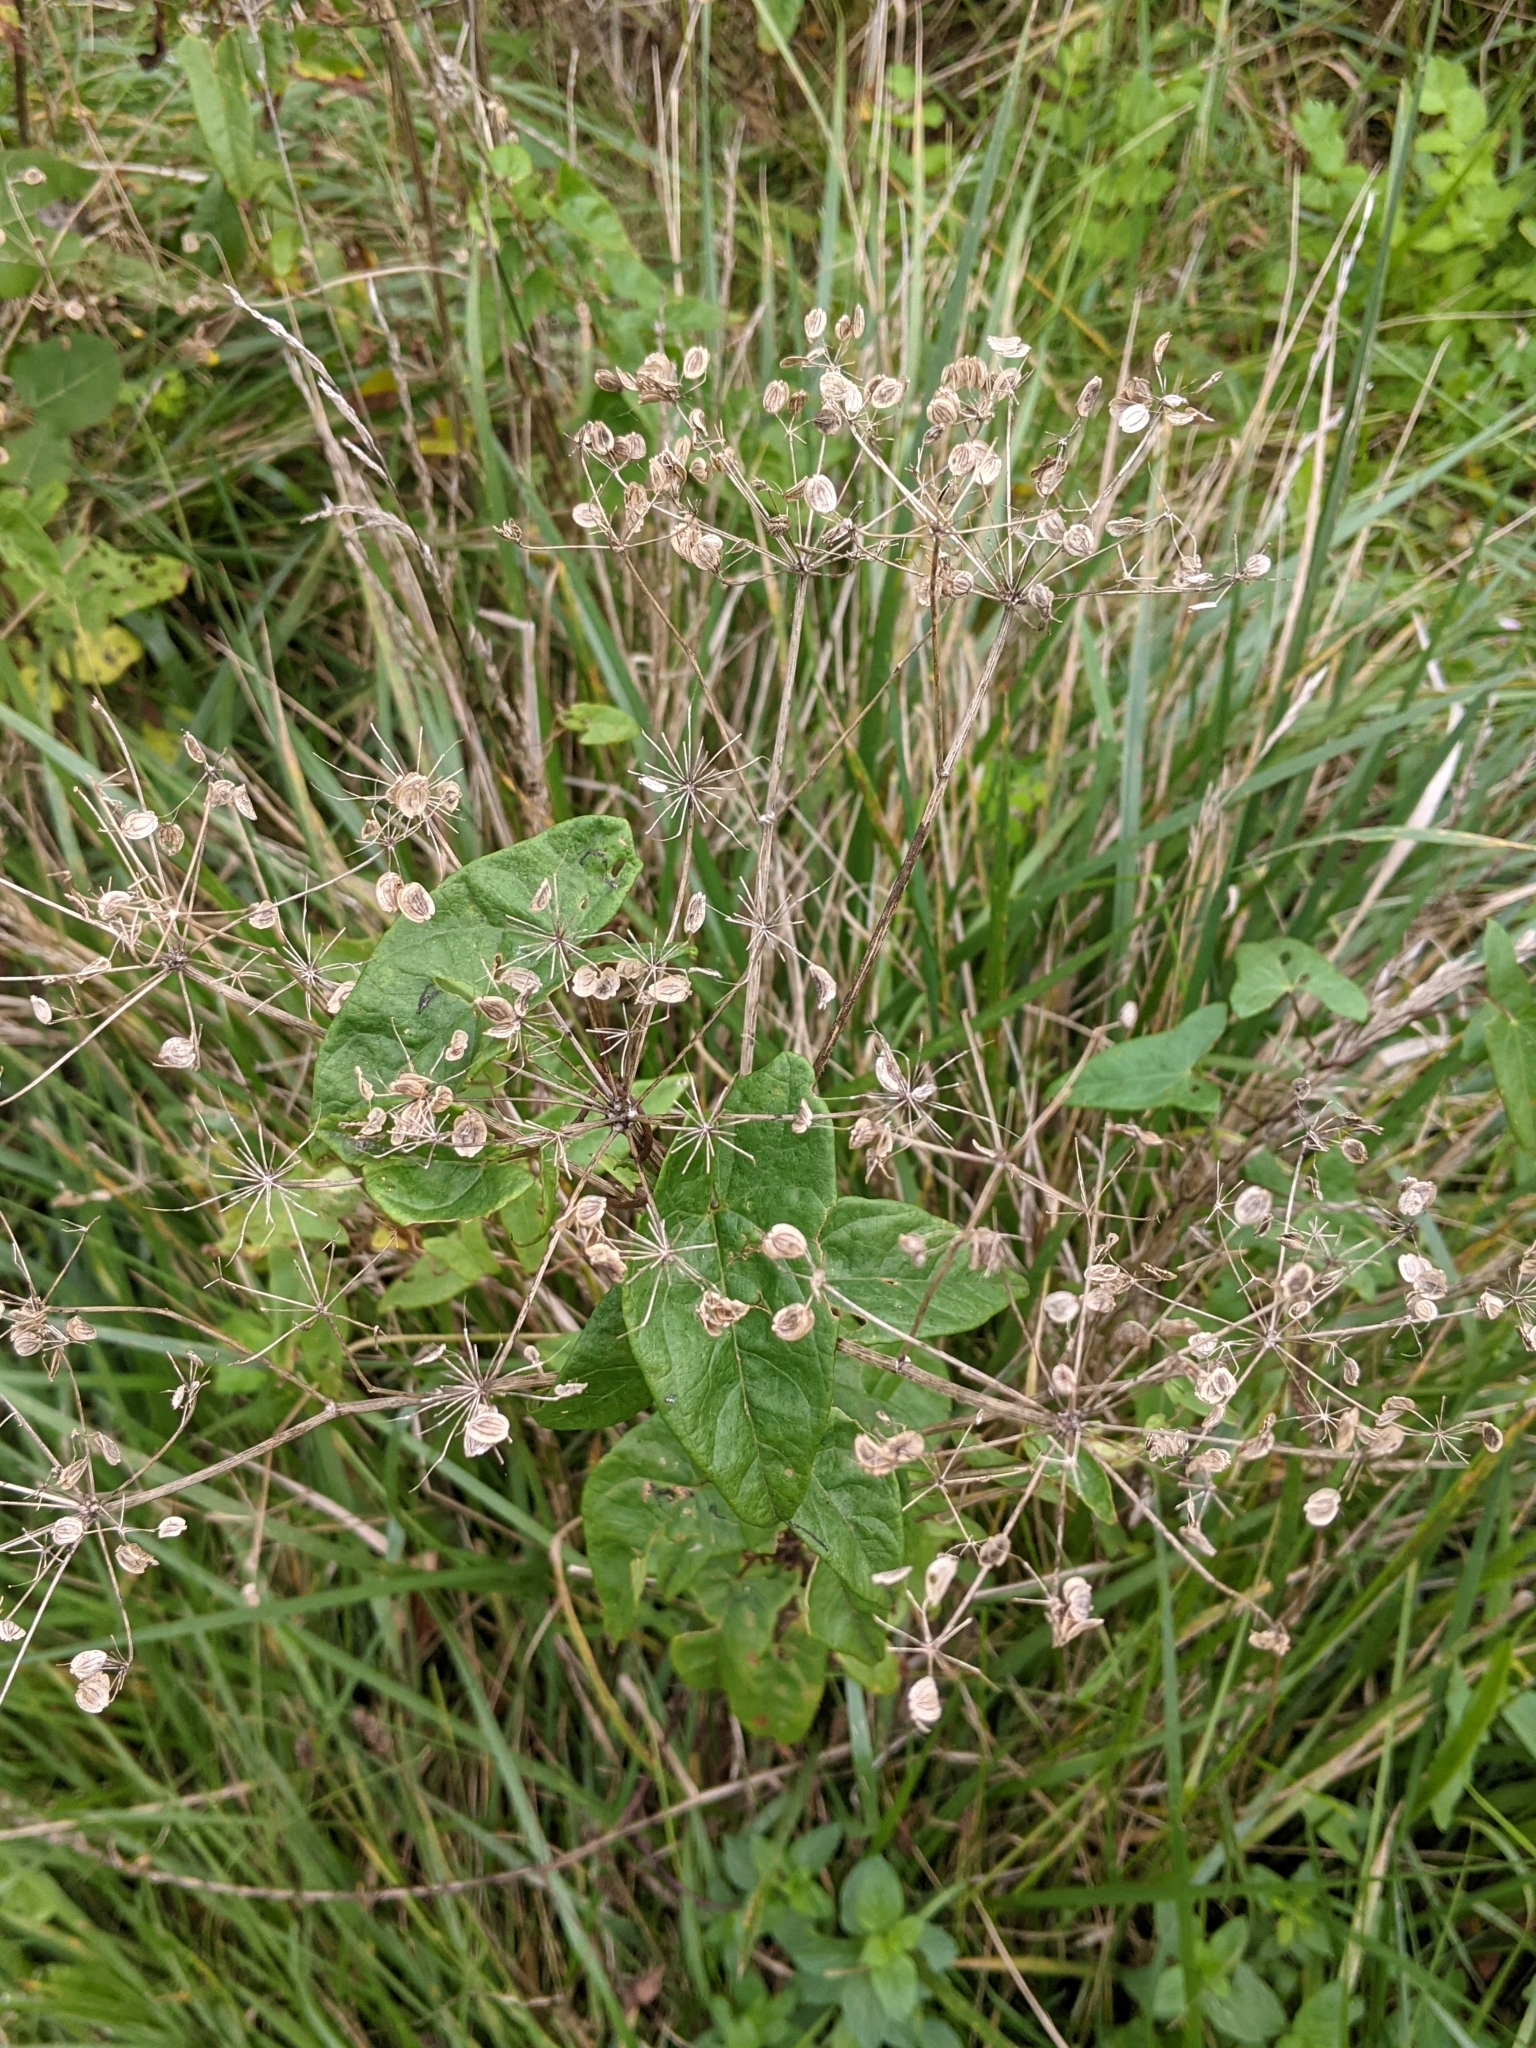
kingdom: Plantae
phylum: Tracheophyta
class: Magnoliopsida
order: Apiales
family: Apiaceae
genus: Pastinaca
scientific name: Pastinaca sativa
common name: Wild parsnip
